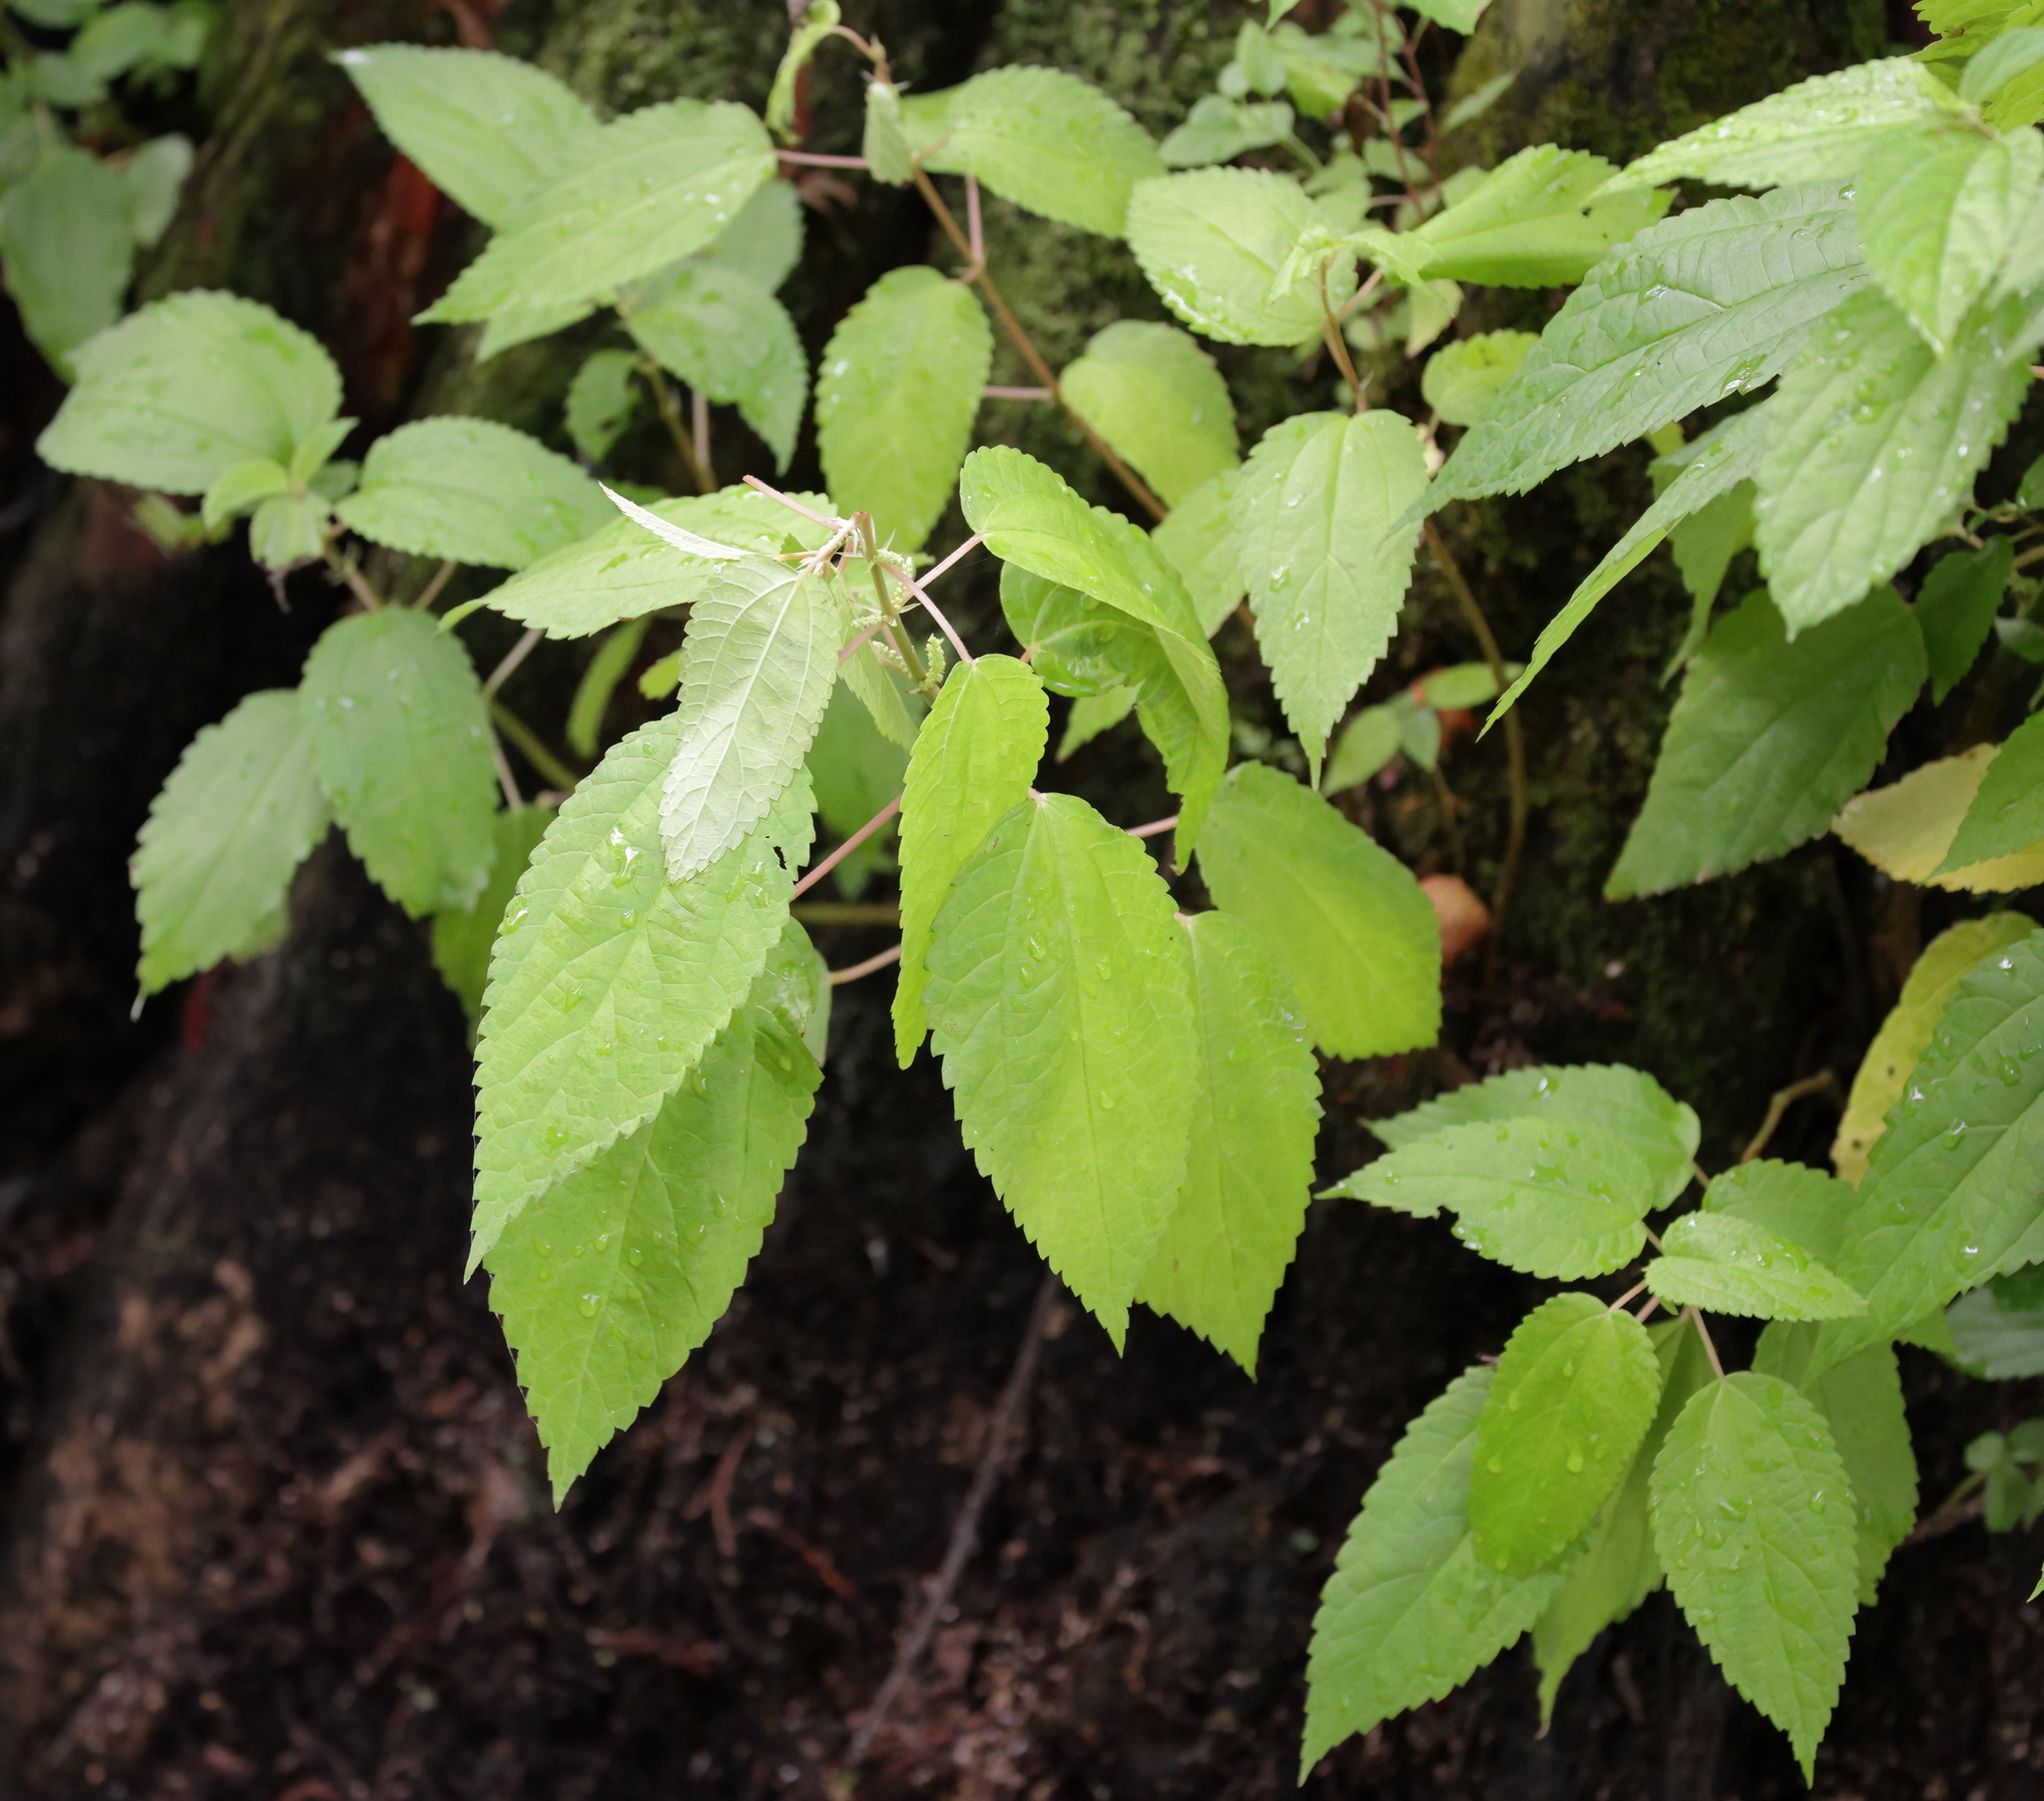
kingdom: Plantae
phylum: Tracheophyta
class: Magnoliopsida
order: Rosales
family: Urticaceae
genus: Boehmeria
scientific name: Boehmeria cylindrica
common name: Bog-hemp
